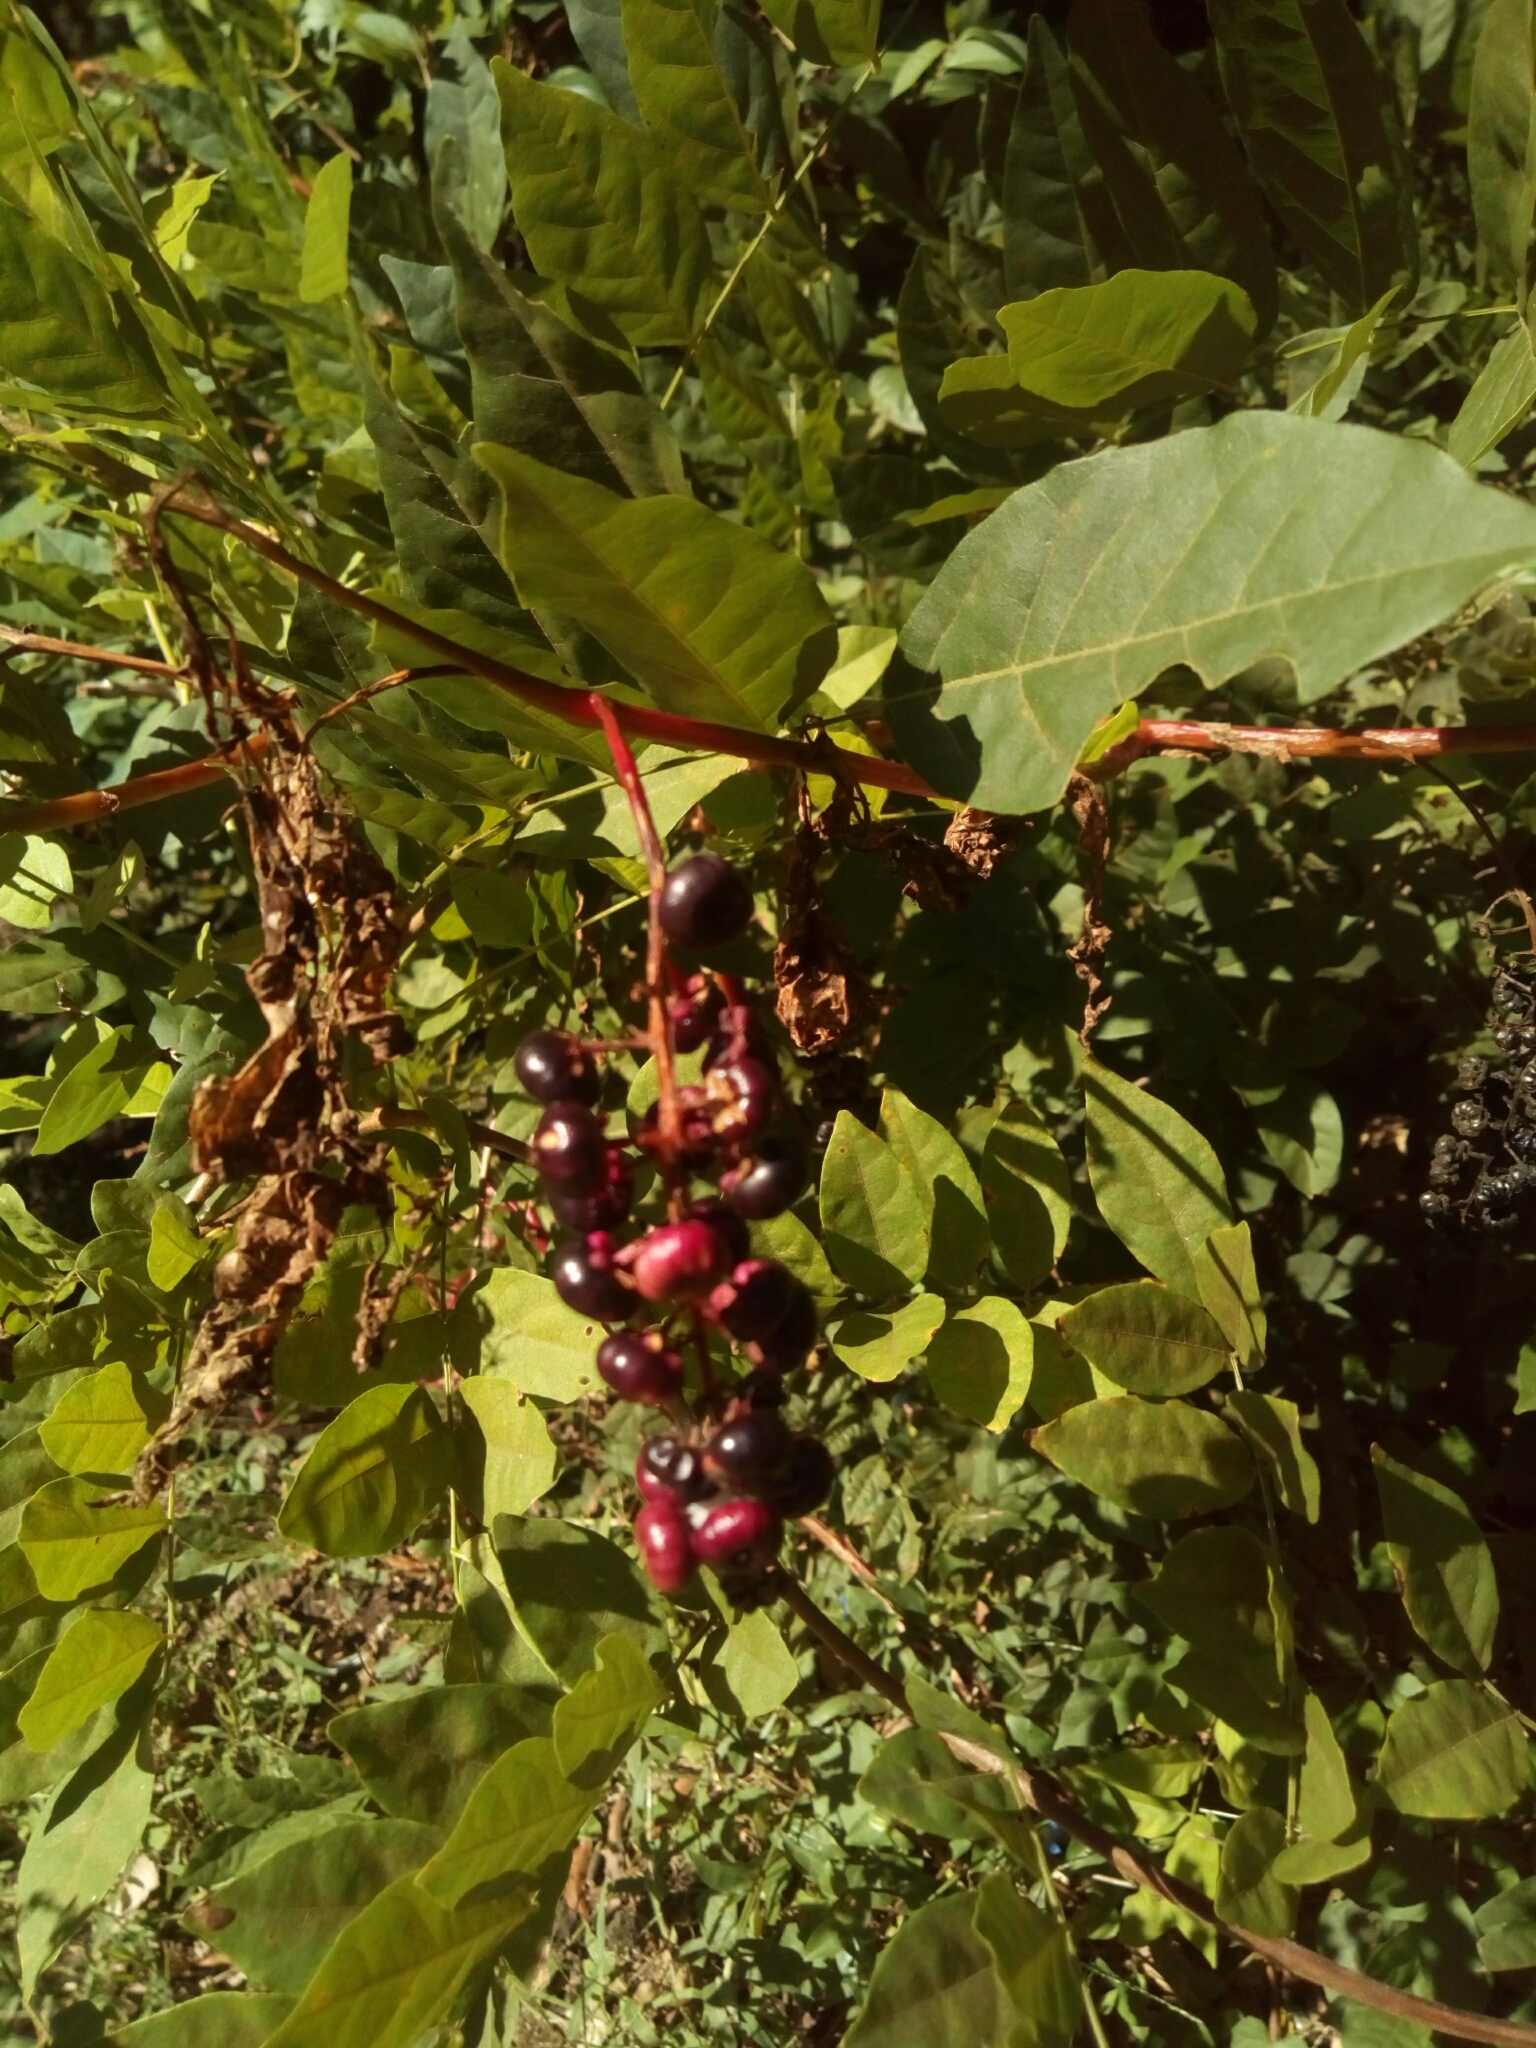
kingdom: Plantae
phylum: Tracheophyta
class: Magnoliopsida
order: Caryophyllales
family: Phytolaccaceae
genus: Phytolacca
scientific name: Phytolacca americana
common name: American pokeweed
